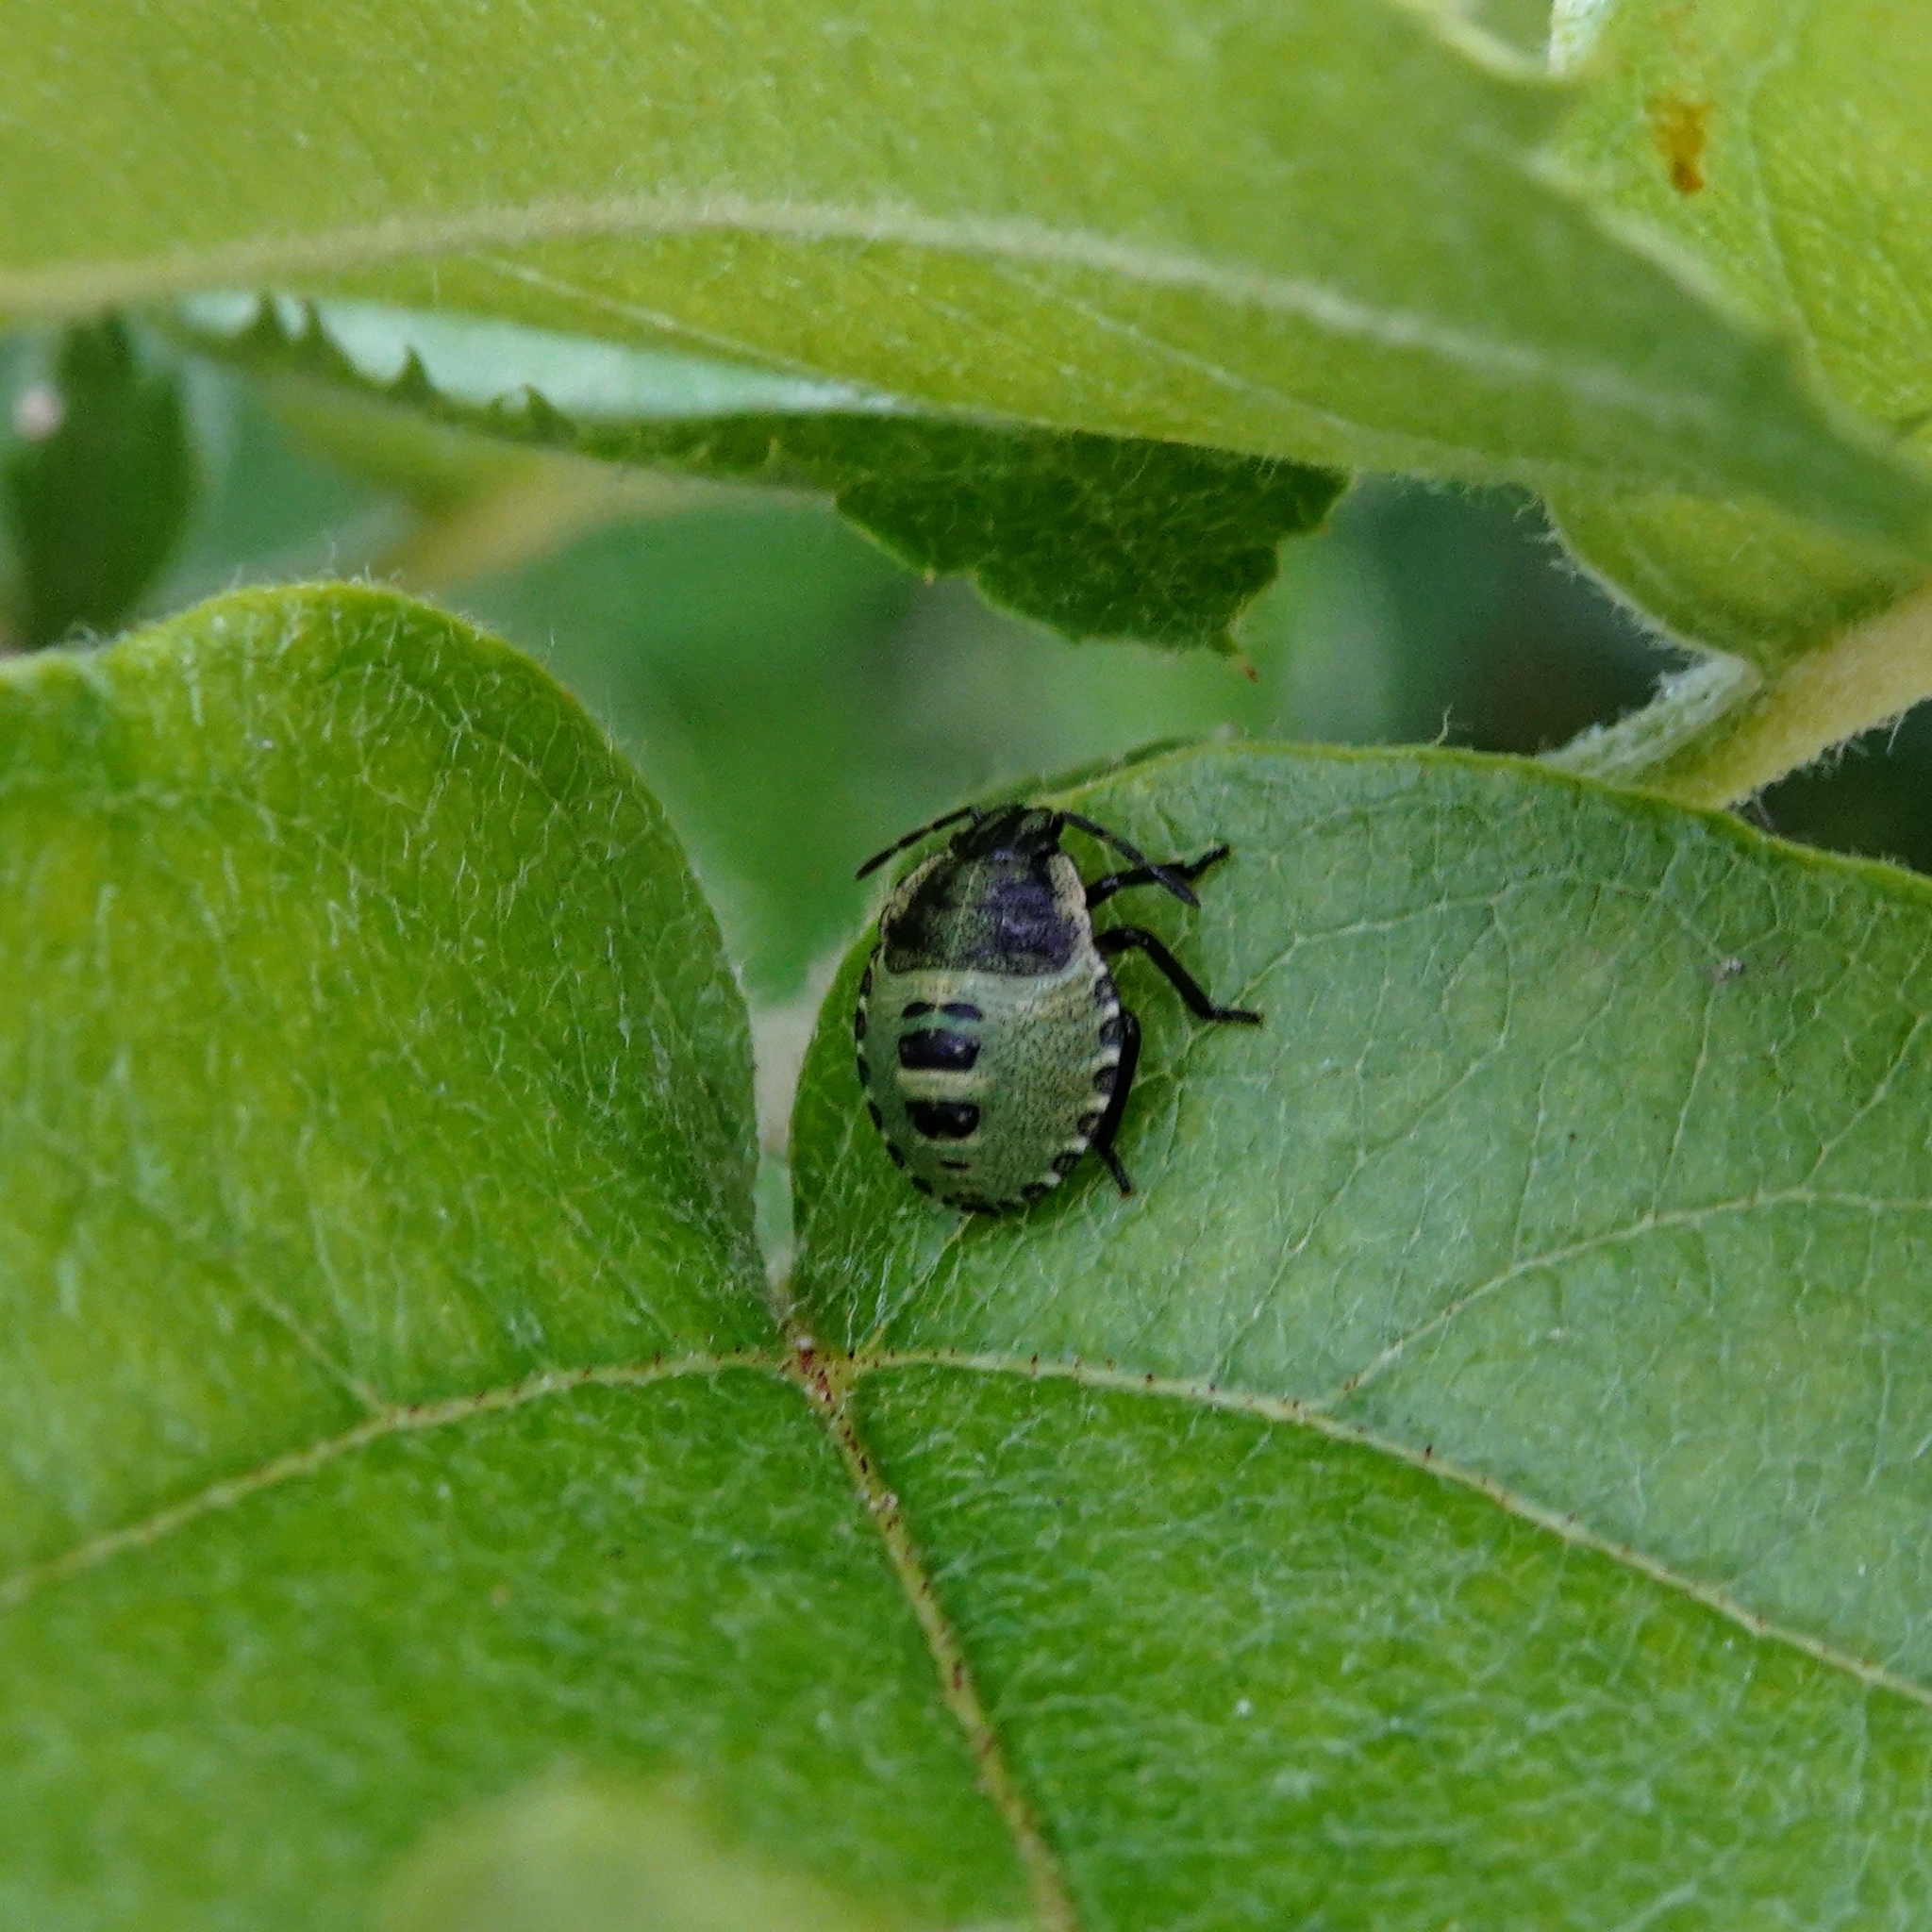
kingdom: Animalia
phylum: Arthropoda
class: Insecta
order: Hemiptera
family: Pentatomidae
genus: Palomena
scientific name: Palomena prasina
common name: Green shieldbug
